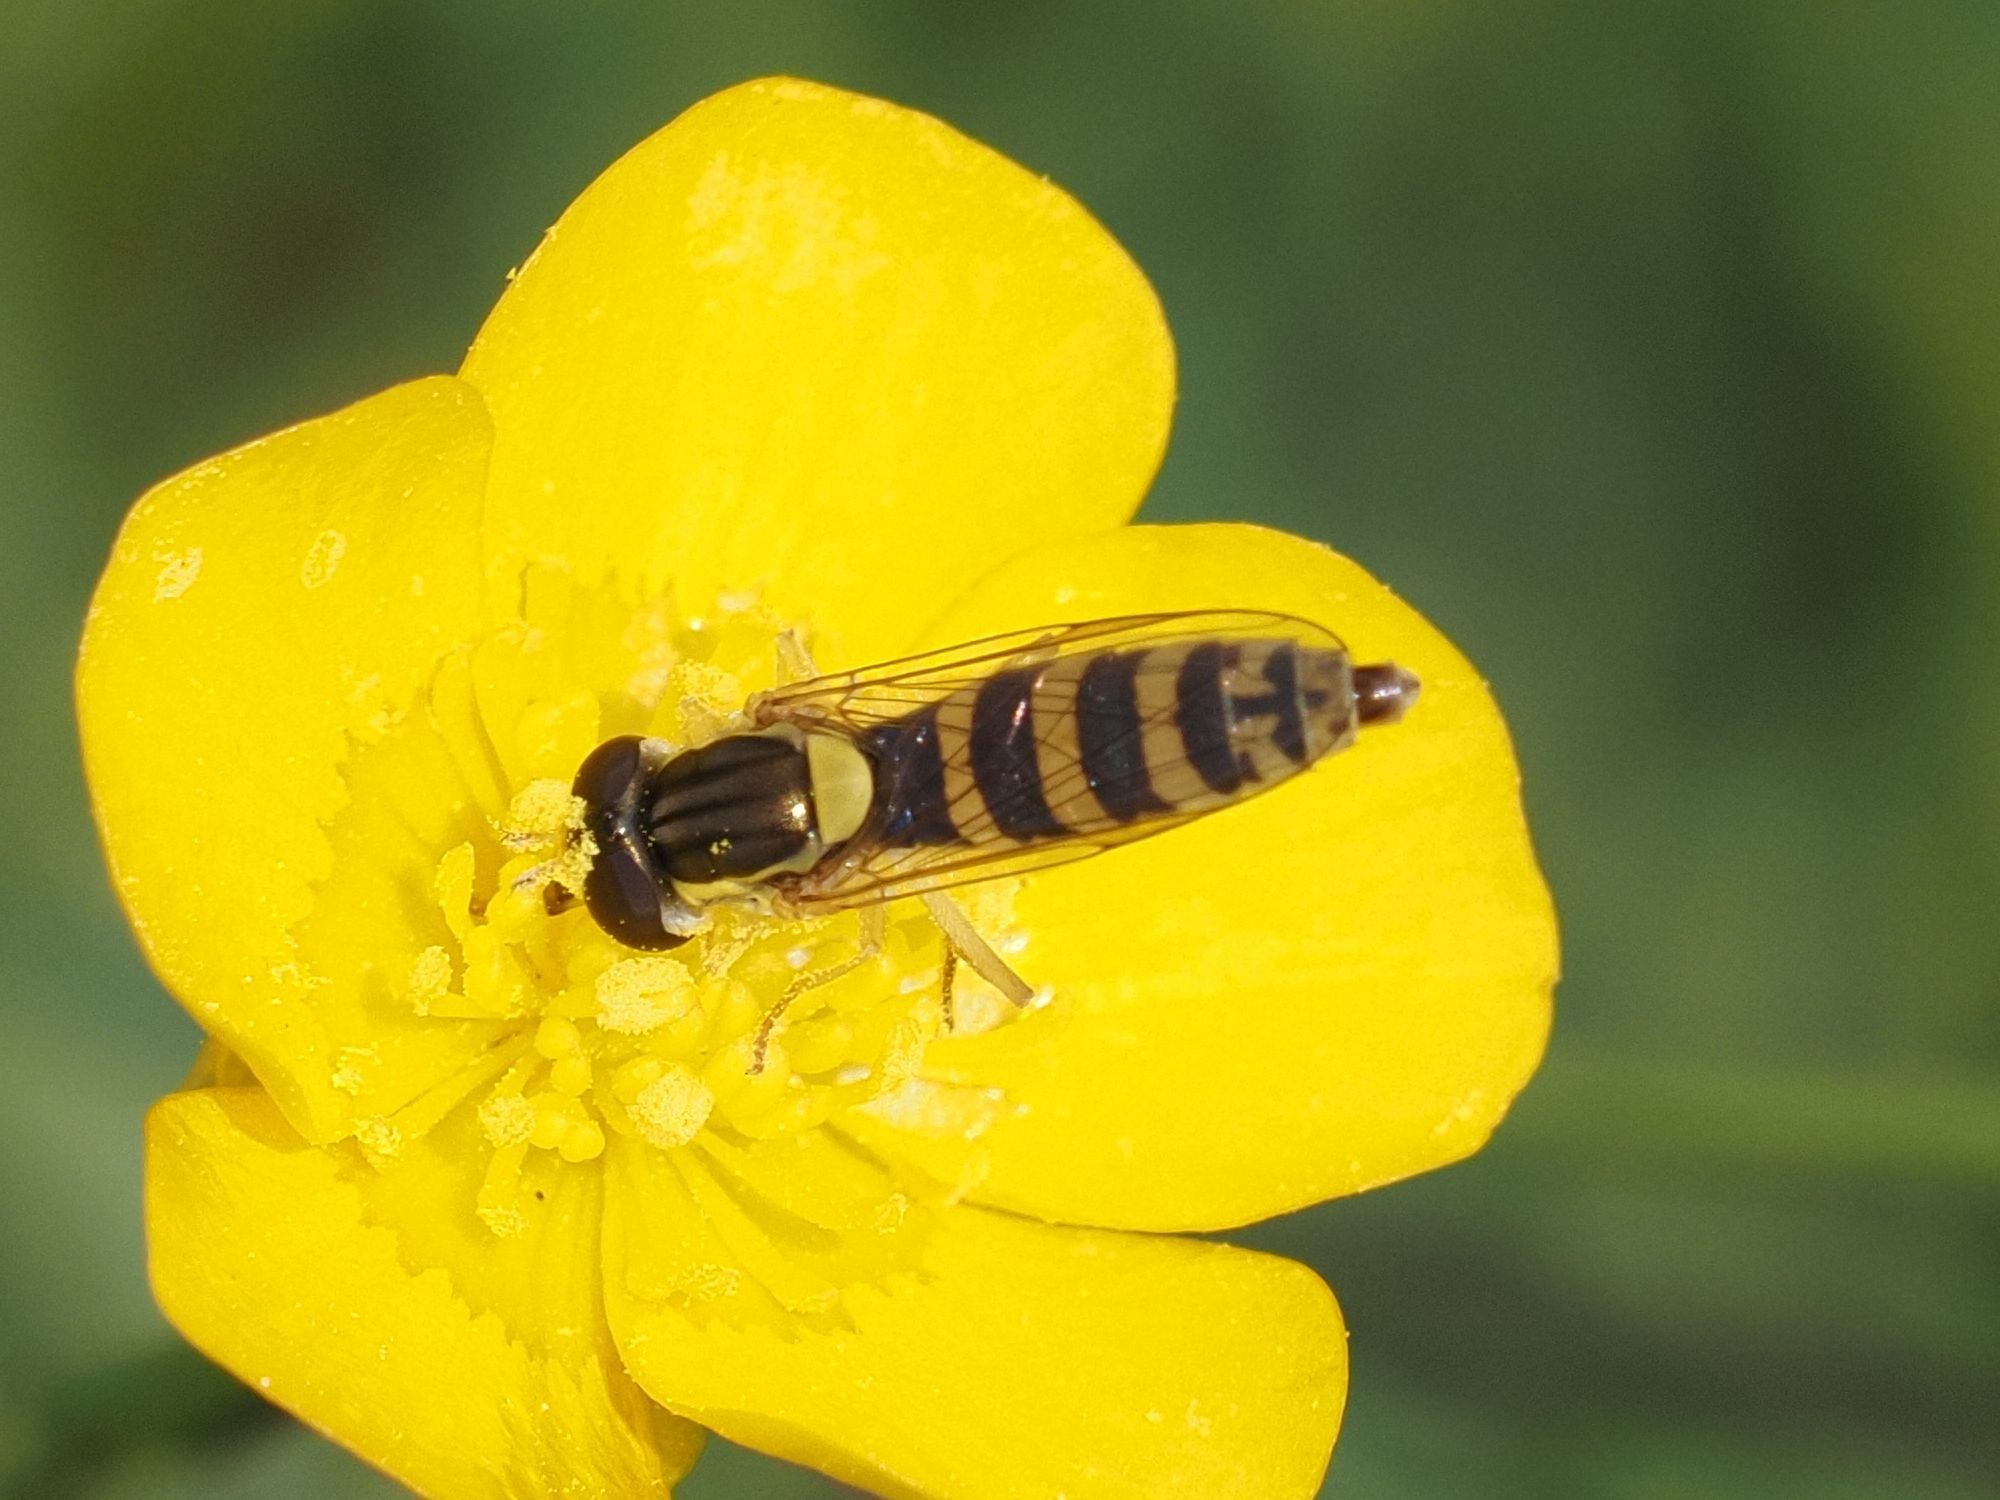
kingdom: Animalia
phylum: Arthropoda
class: Insecta
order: Diptera
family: Syrphidae
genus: Sphaerophoria
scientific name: Sphaerophoria
